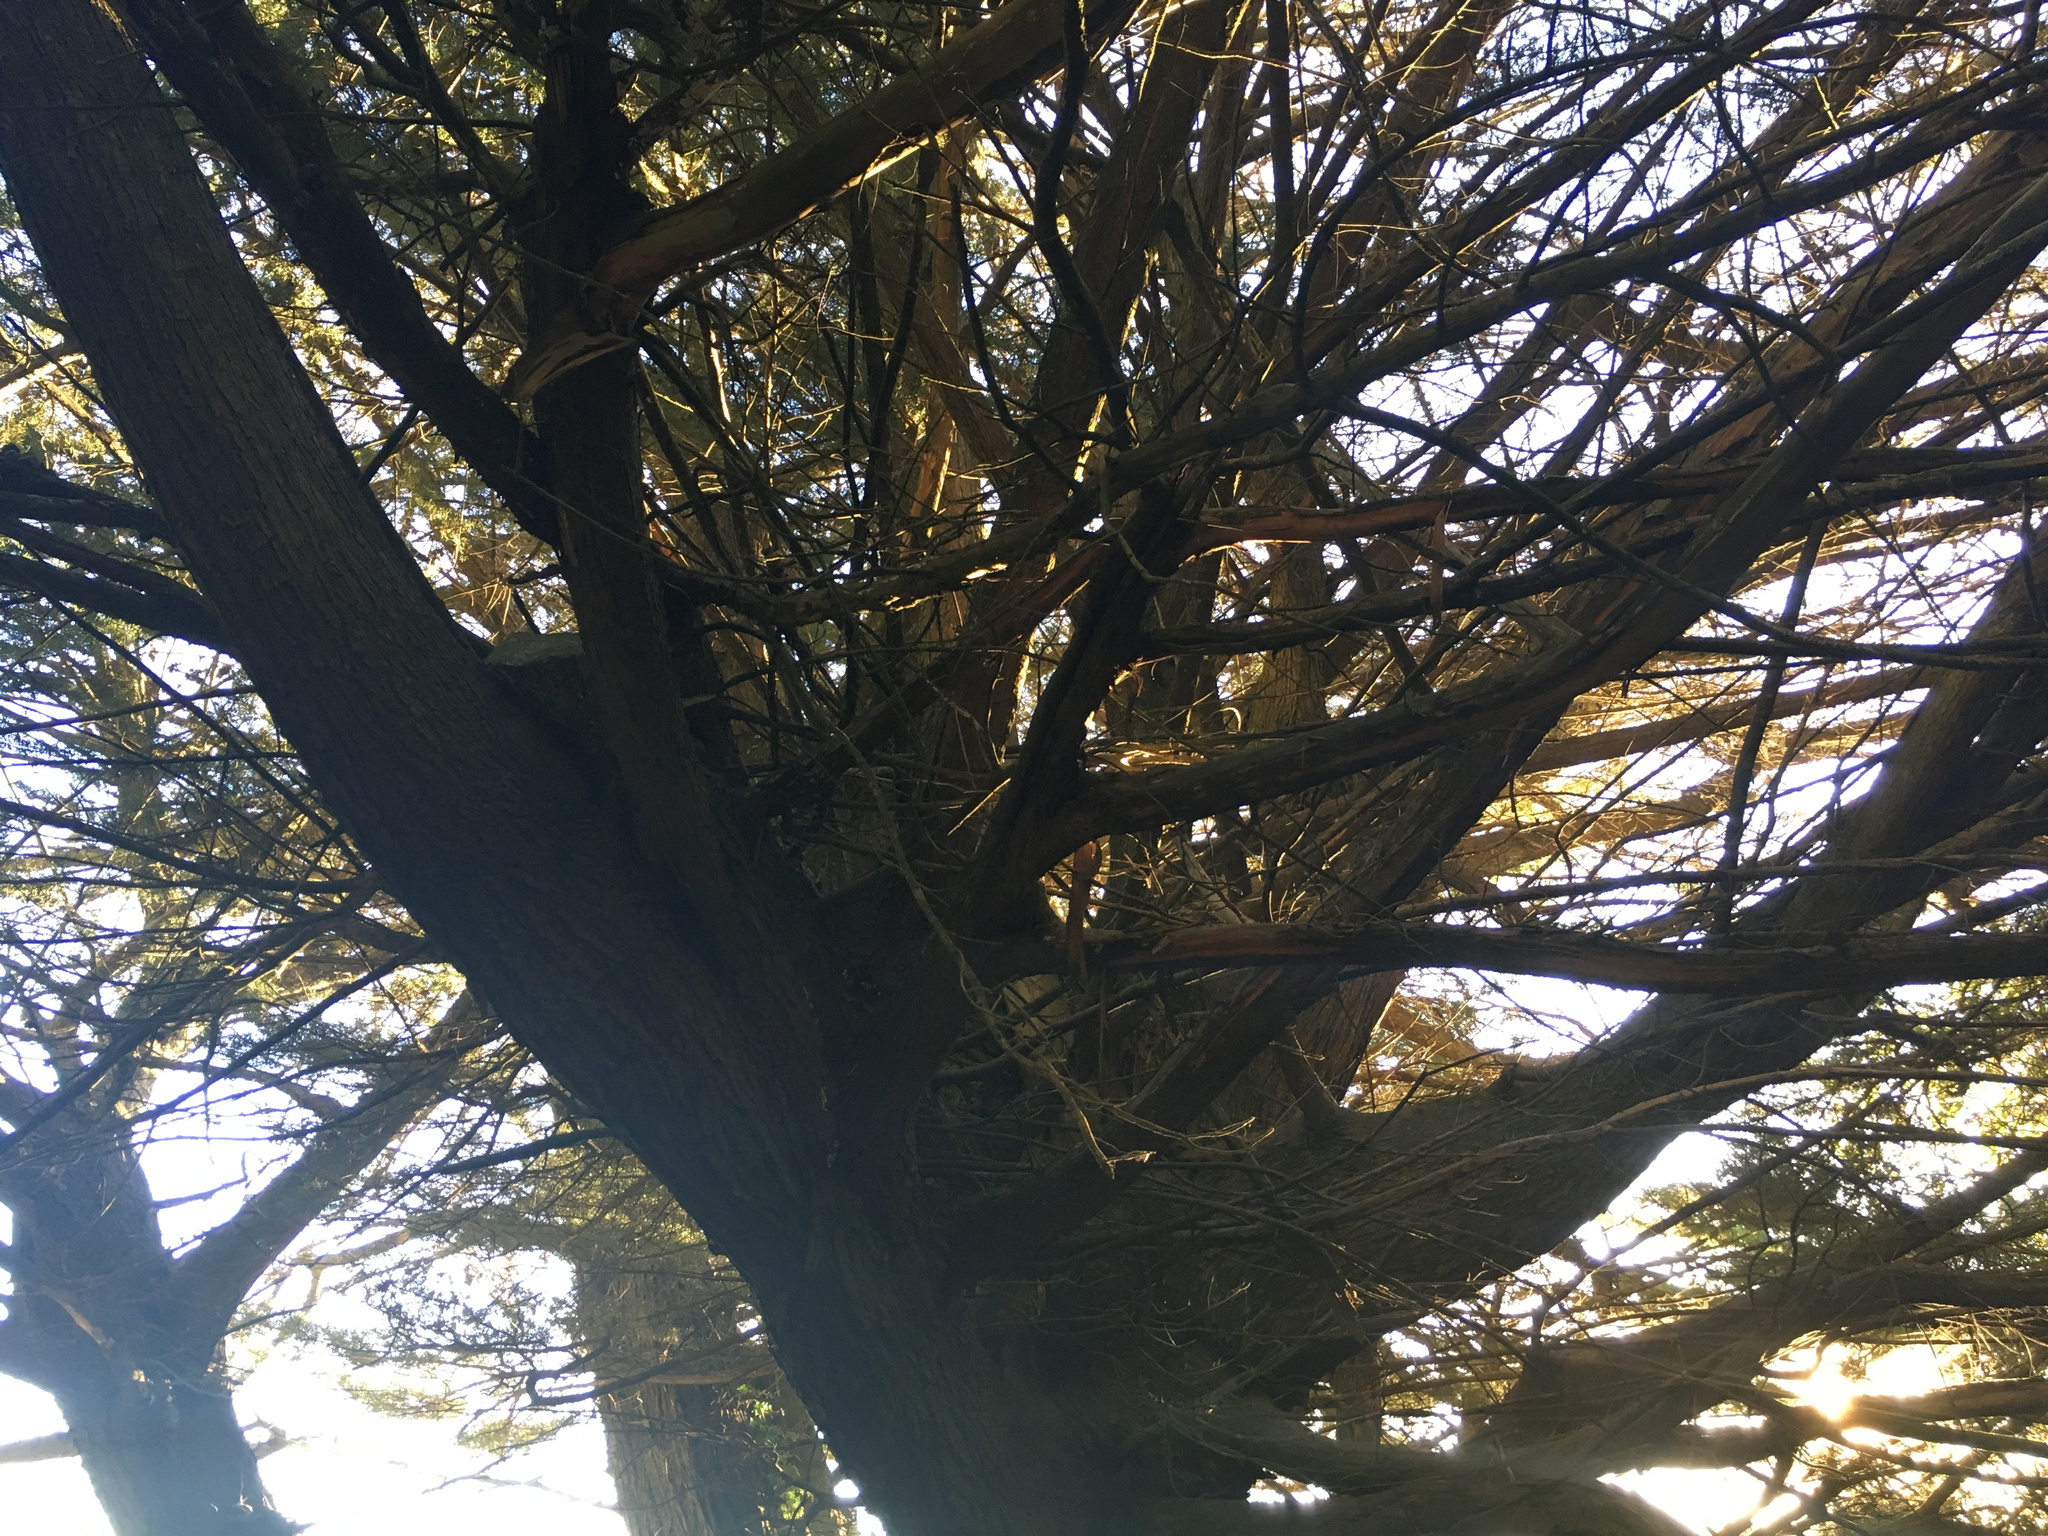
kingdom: Plantae
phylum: Tracheophyta
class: Pinopsida
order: Pinales
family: Cupressaceae
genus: Cupressus
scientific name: Cupressus macrocarpa
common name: Monterey cypress
